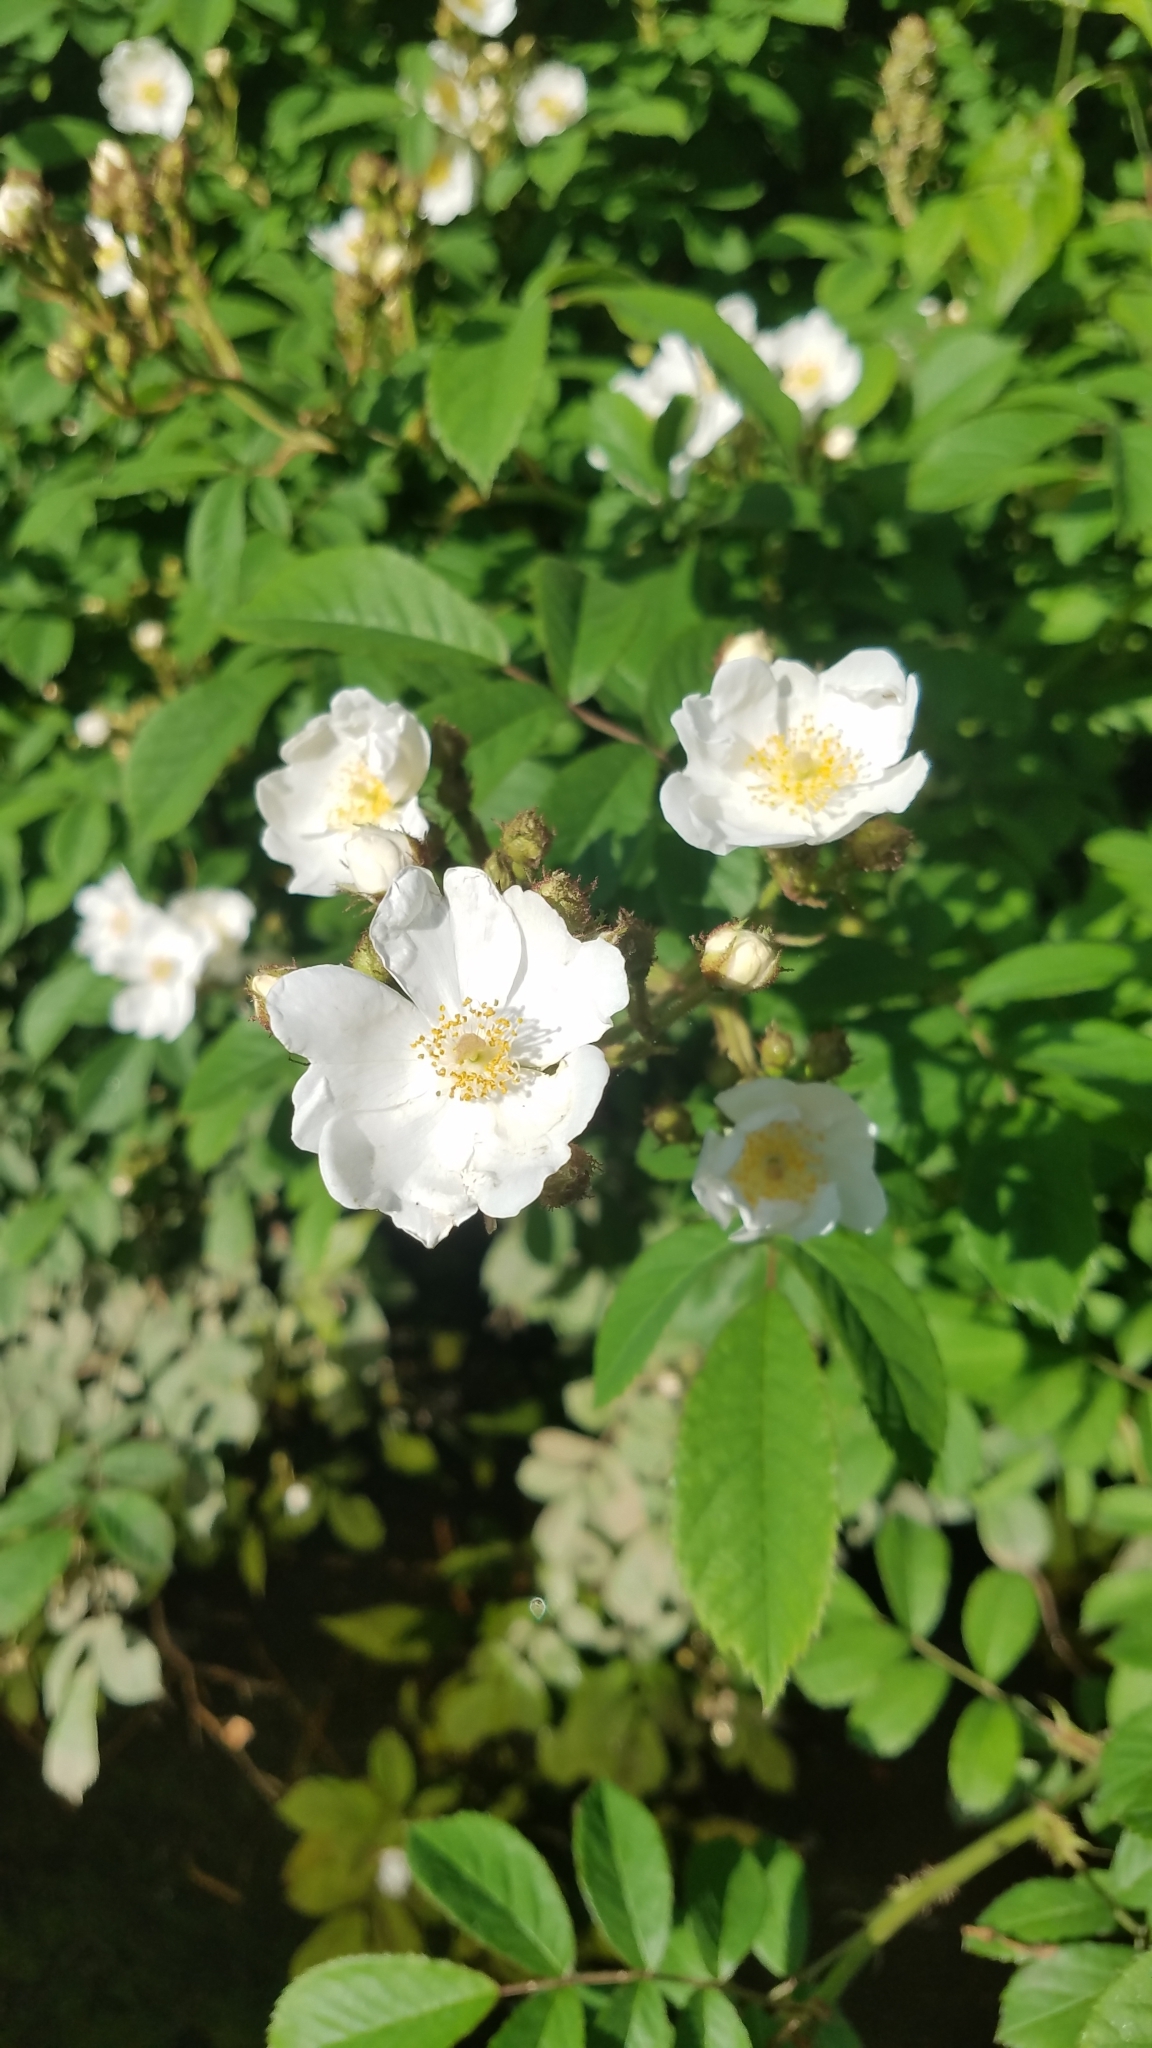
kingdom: Plantae
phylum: Tracheophyta
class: Magnoliopsida
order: Rosales
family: Rosaceae
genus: Rosa
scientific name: Rosa multiflora
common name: Multiflora rose
